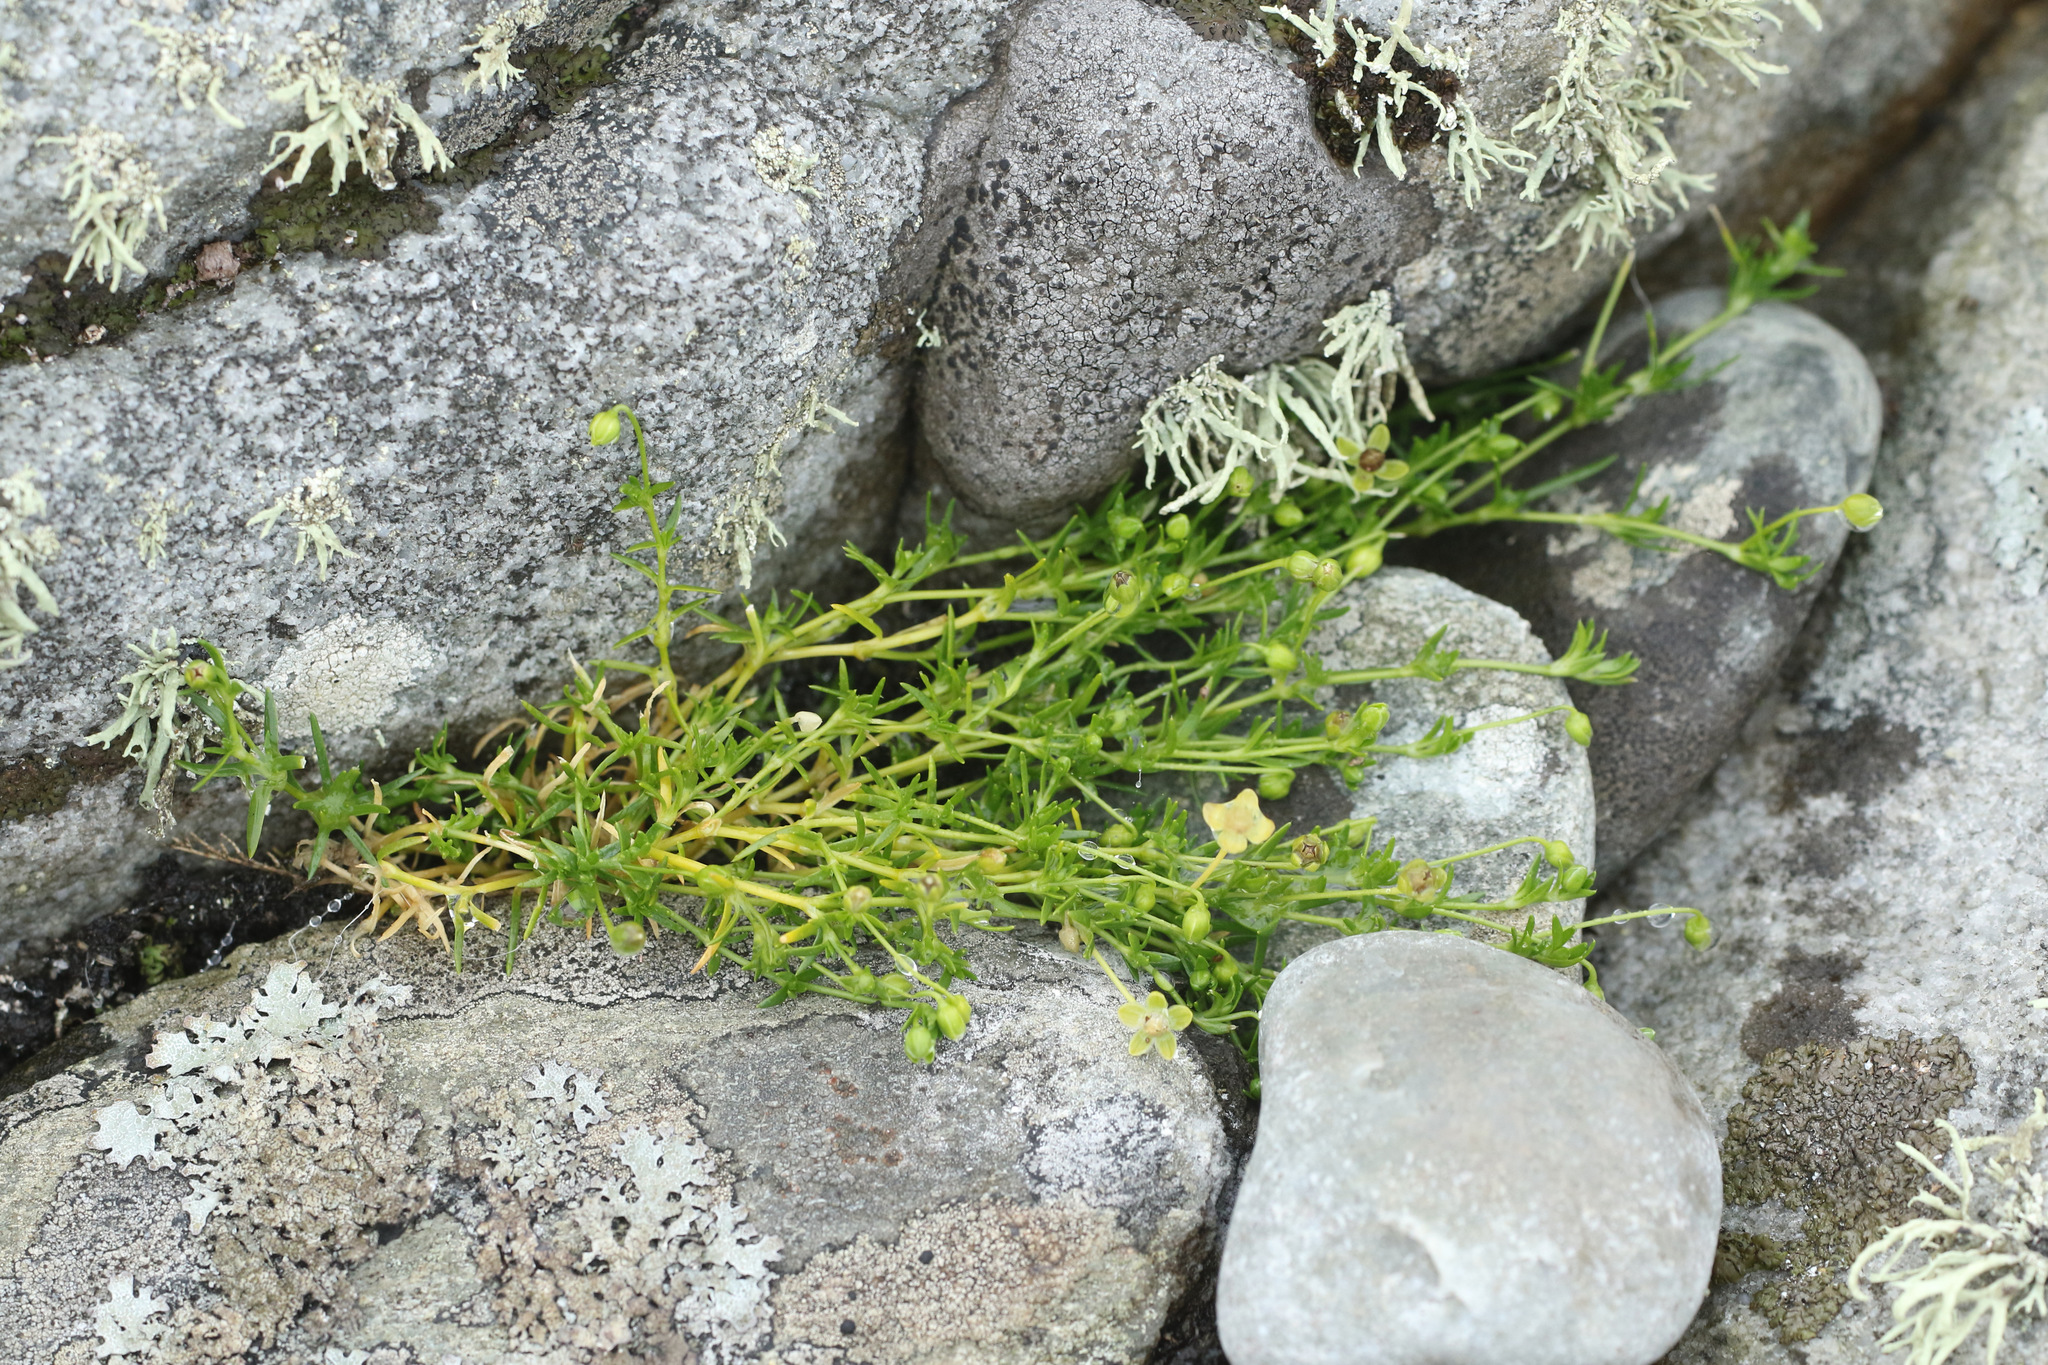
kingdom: Plantae
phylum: Tracheophyta
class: Magnoliopsida
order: Caryophyllales
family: Caryophyllaceae
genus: Sagina
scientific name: Sagina procumbens
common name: Procumbent pearlwort
